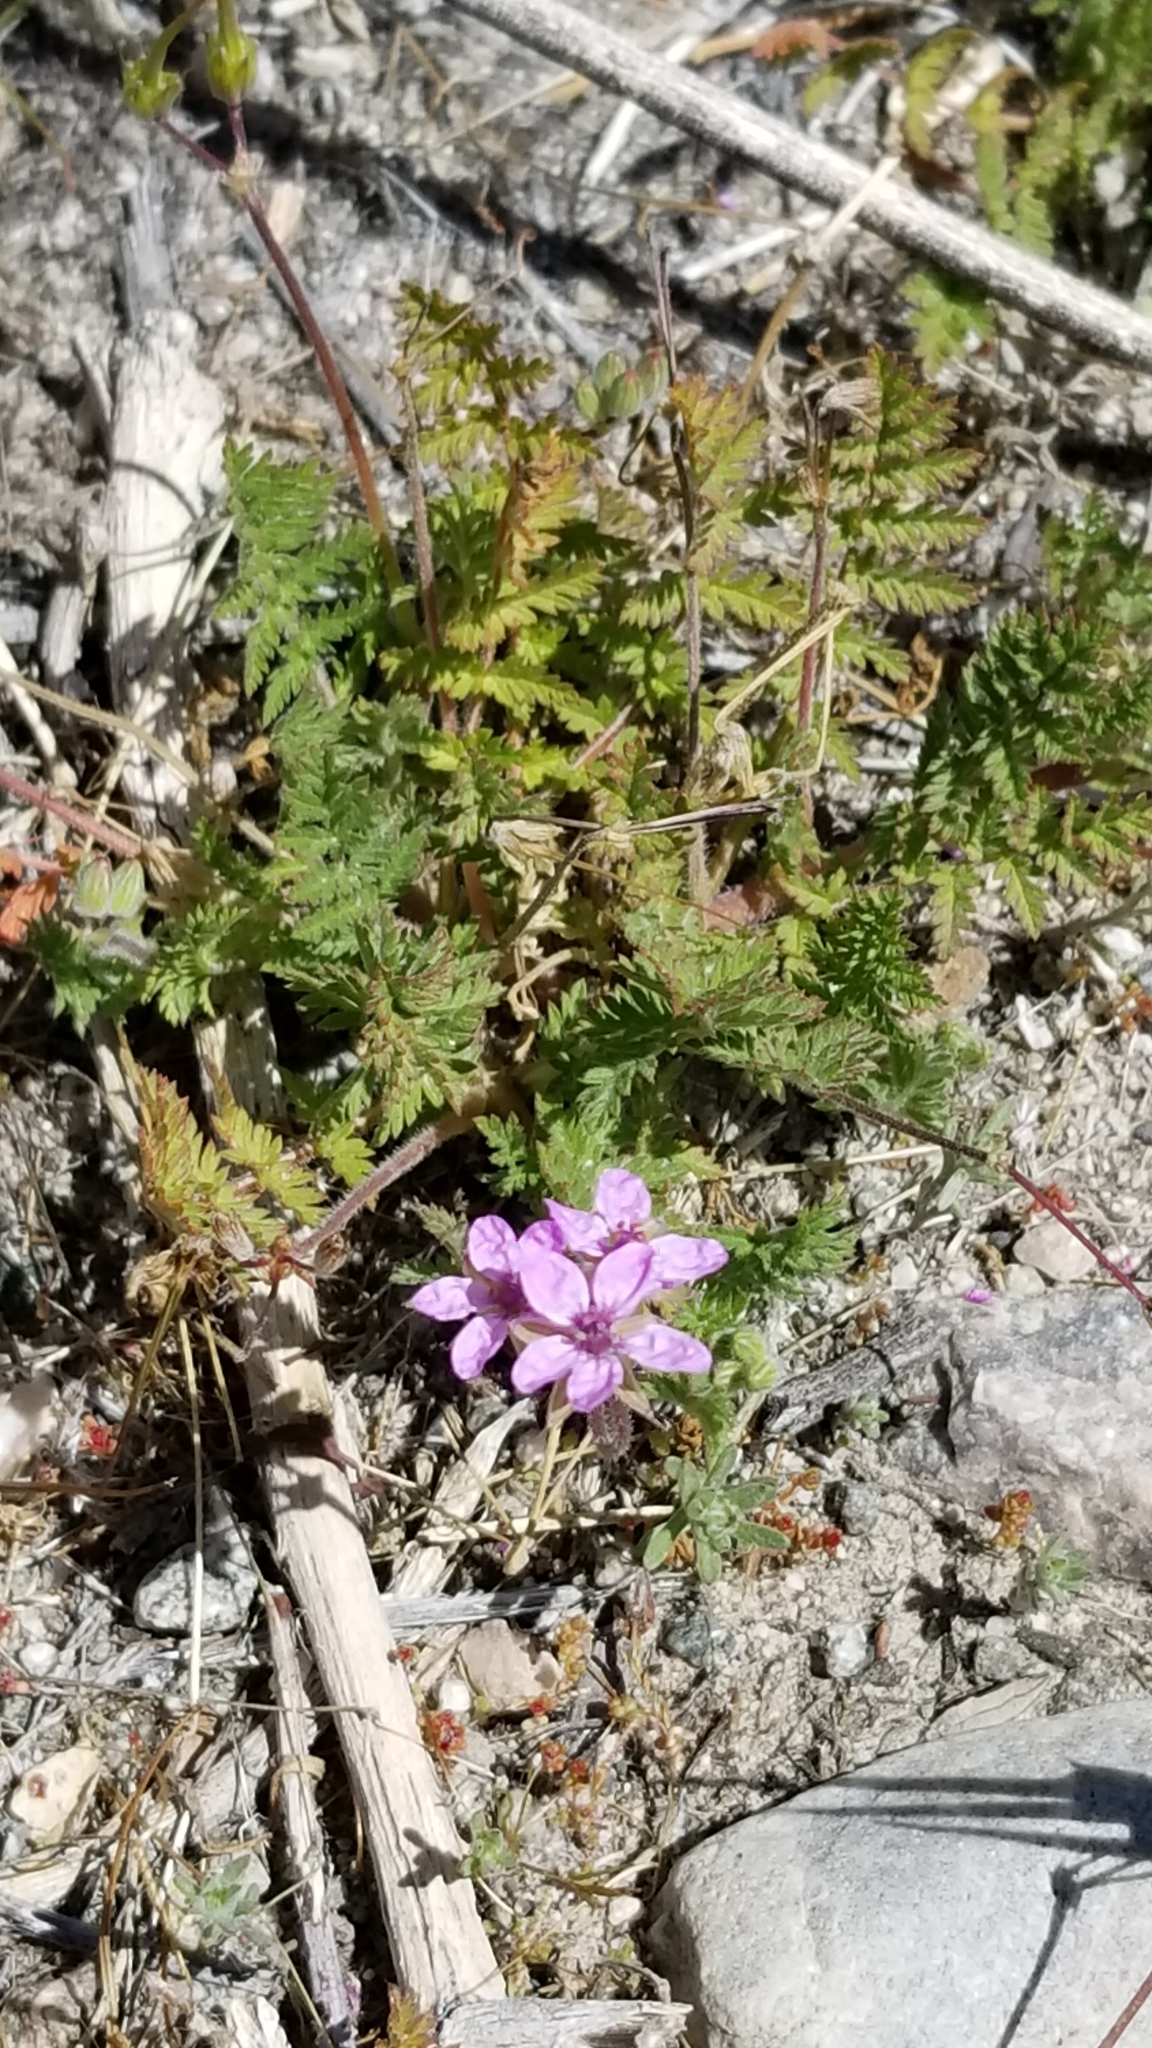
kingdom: Plantae
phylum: Tracheophyta
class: Magnoliopsida
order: Geraniales
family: Geraniaceae
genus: Erodium
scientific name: Erodium cicutarium
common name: Common stork's-bill
